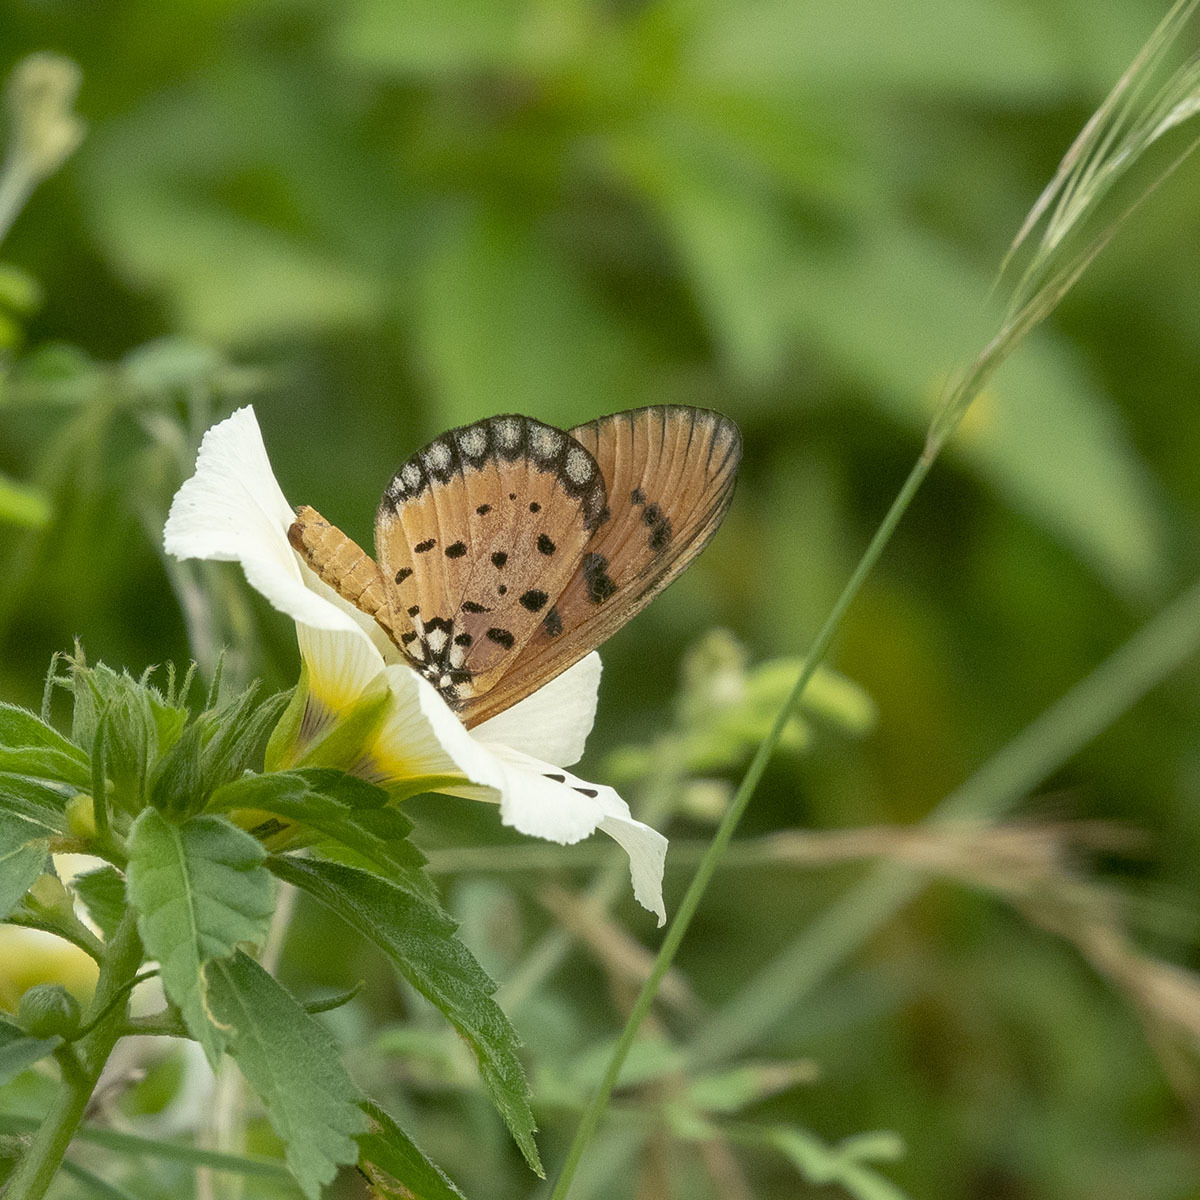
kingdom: Animalia
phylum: Arthropoda
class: Insecta
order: Lepidoptera
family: Nymphalidae
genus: Acraea
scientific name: Acraea terpsicore
